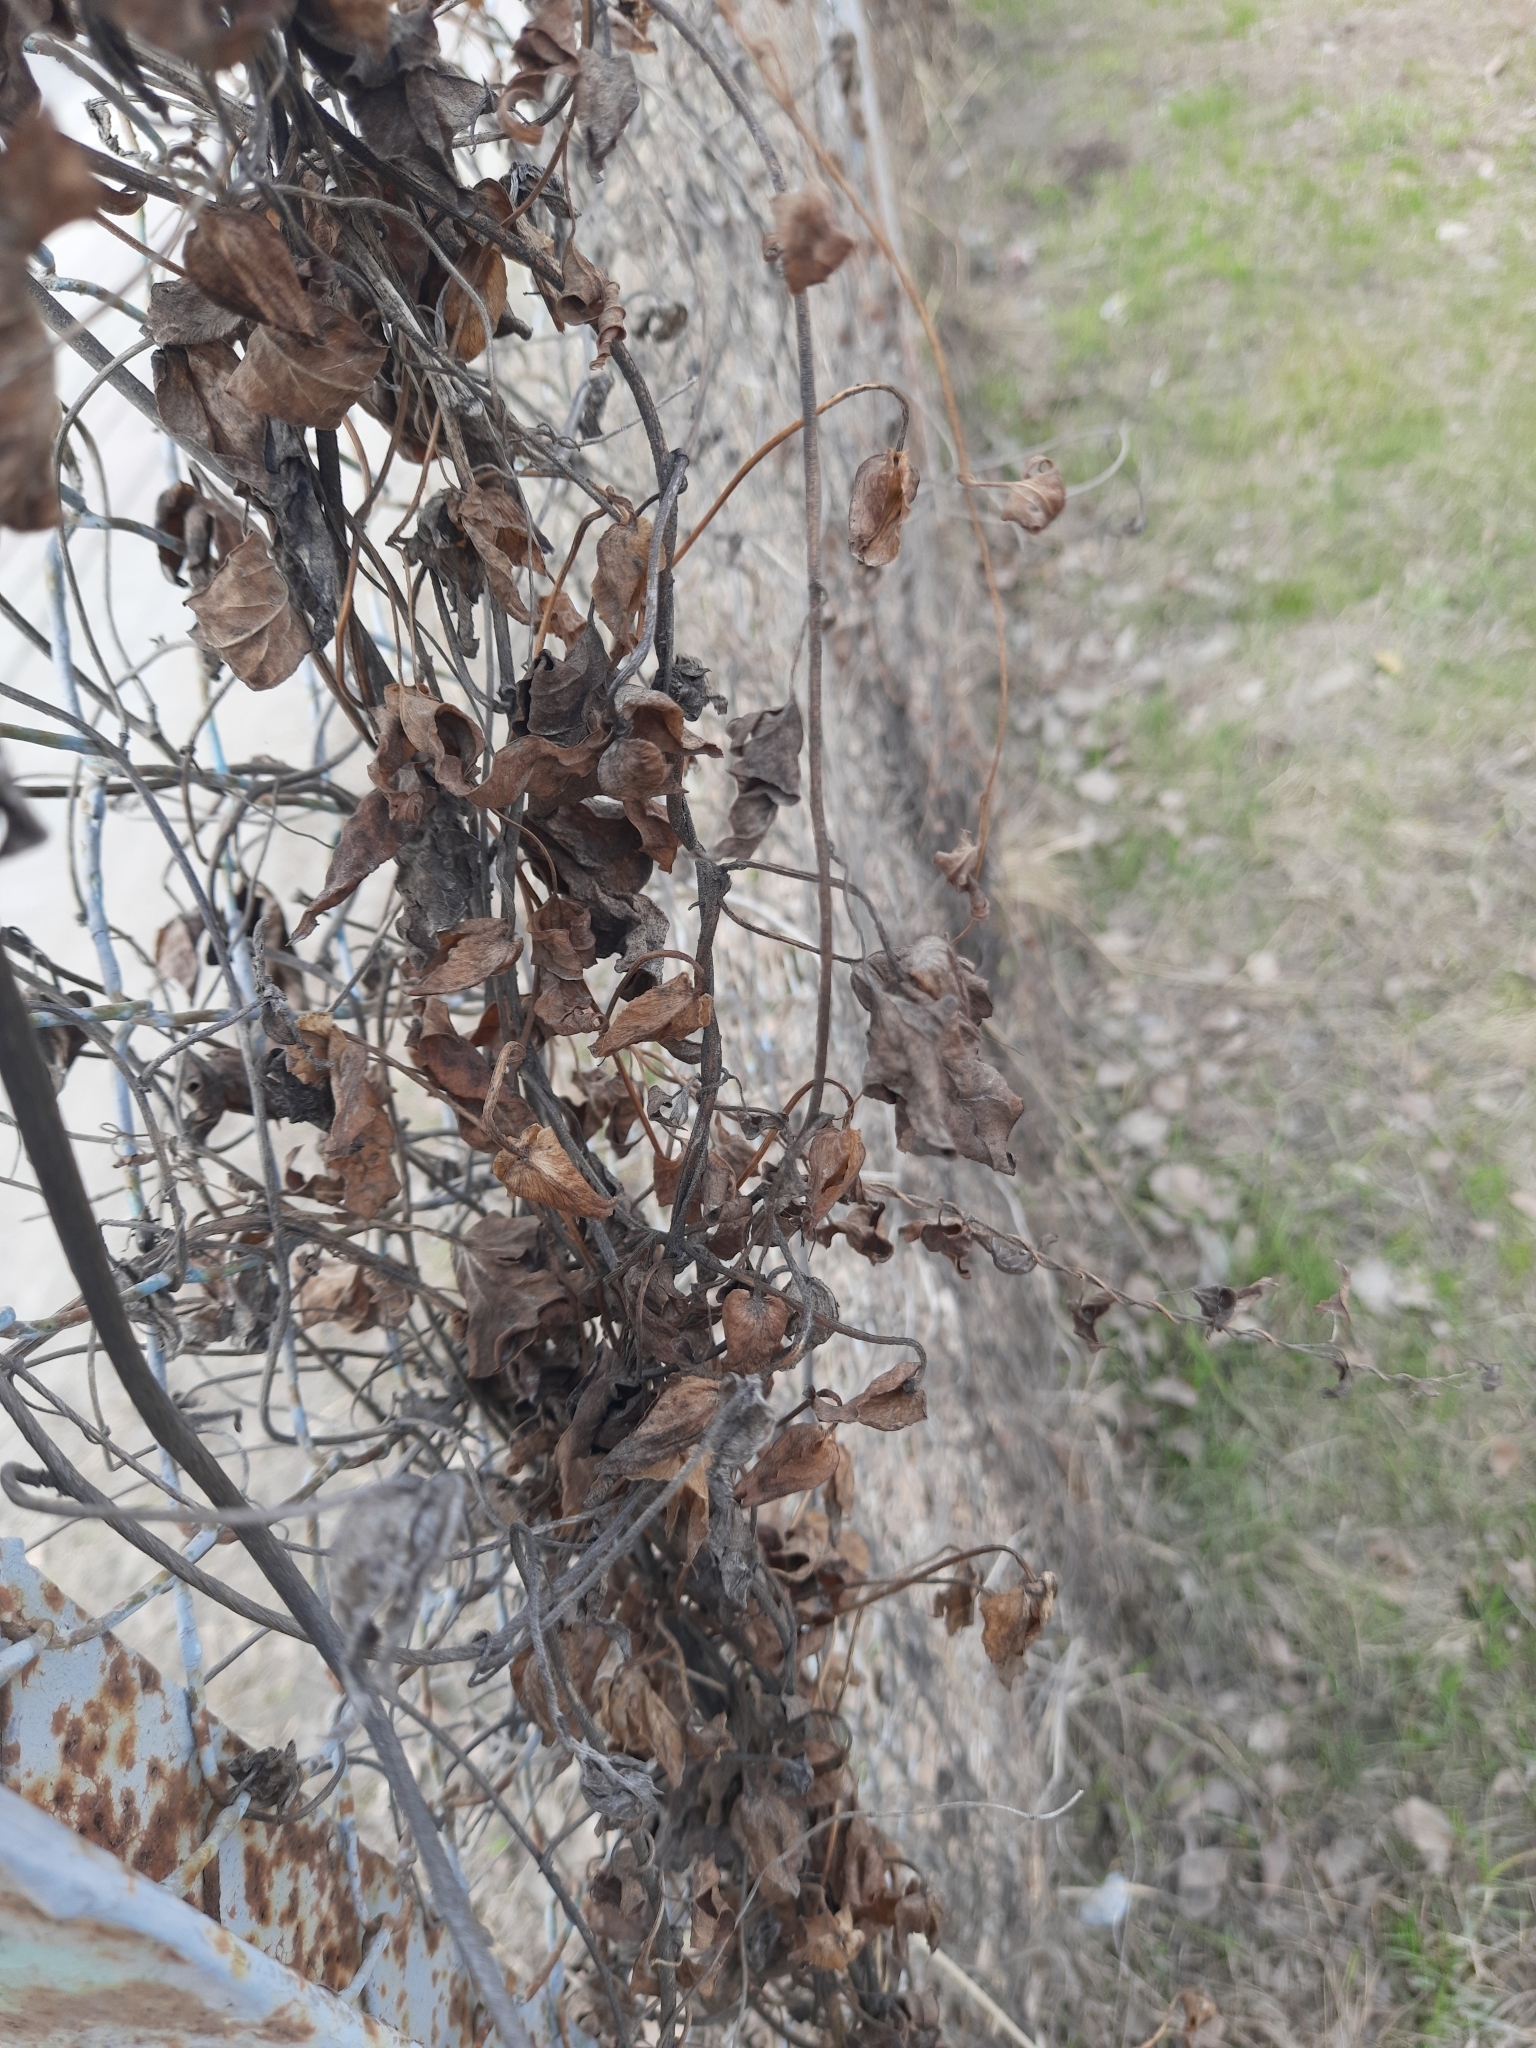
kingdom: Plantae
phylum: Tracheophyta
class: Magnoliopsida
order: Solanales
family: Convolvulaceae
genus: Calystegia
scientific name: Calystegia sepium
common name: Hedge bindweed
